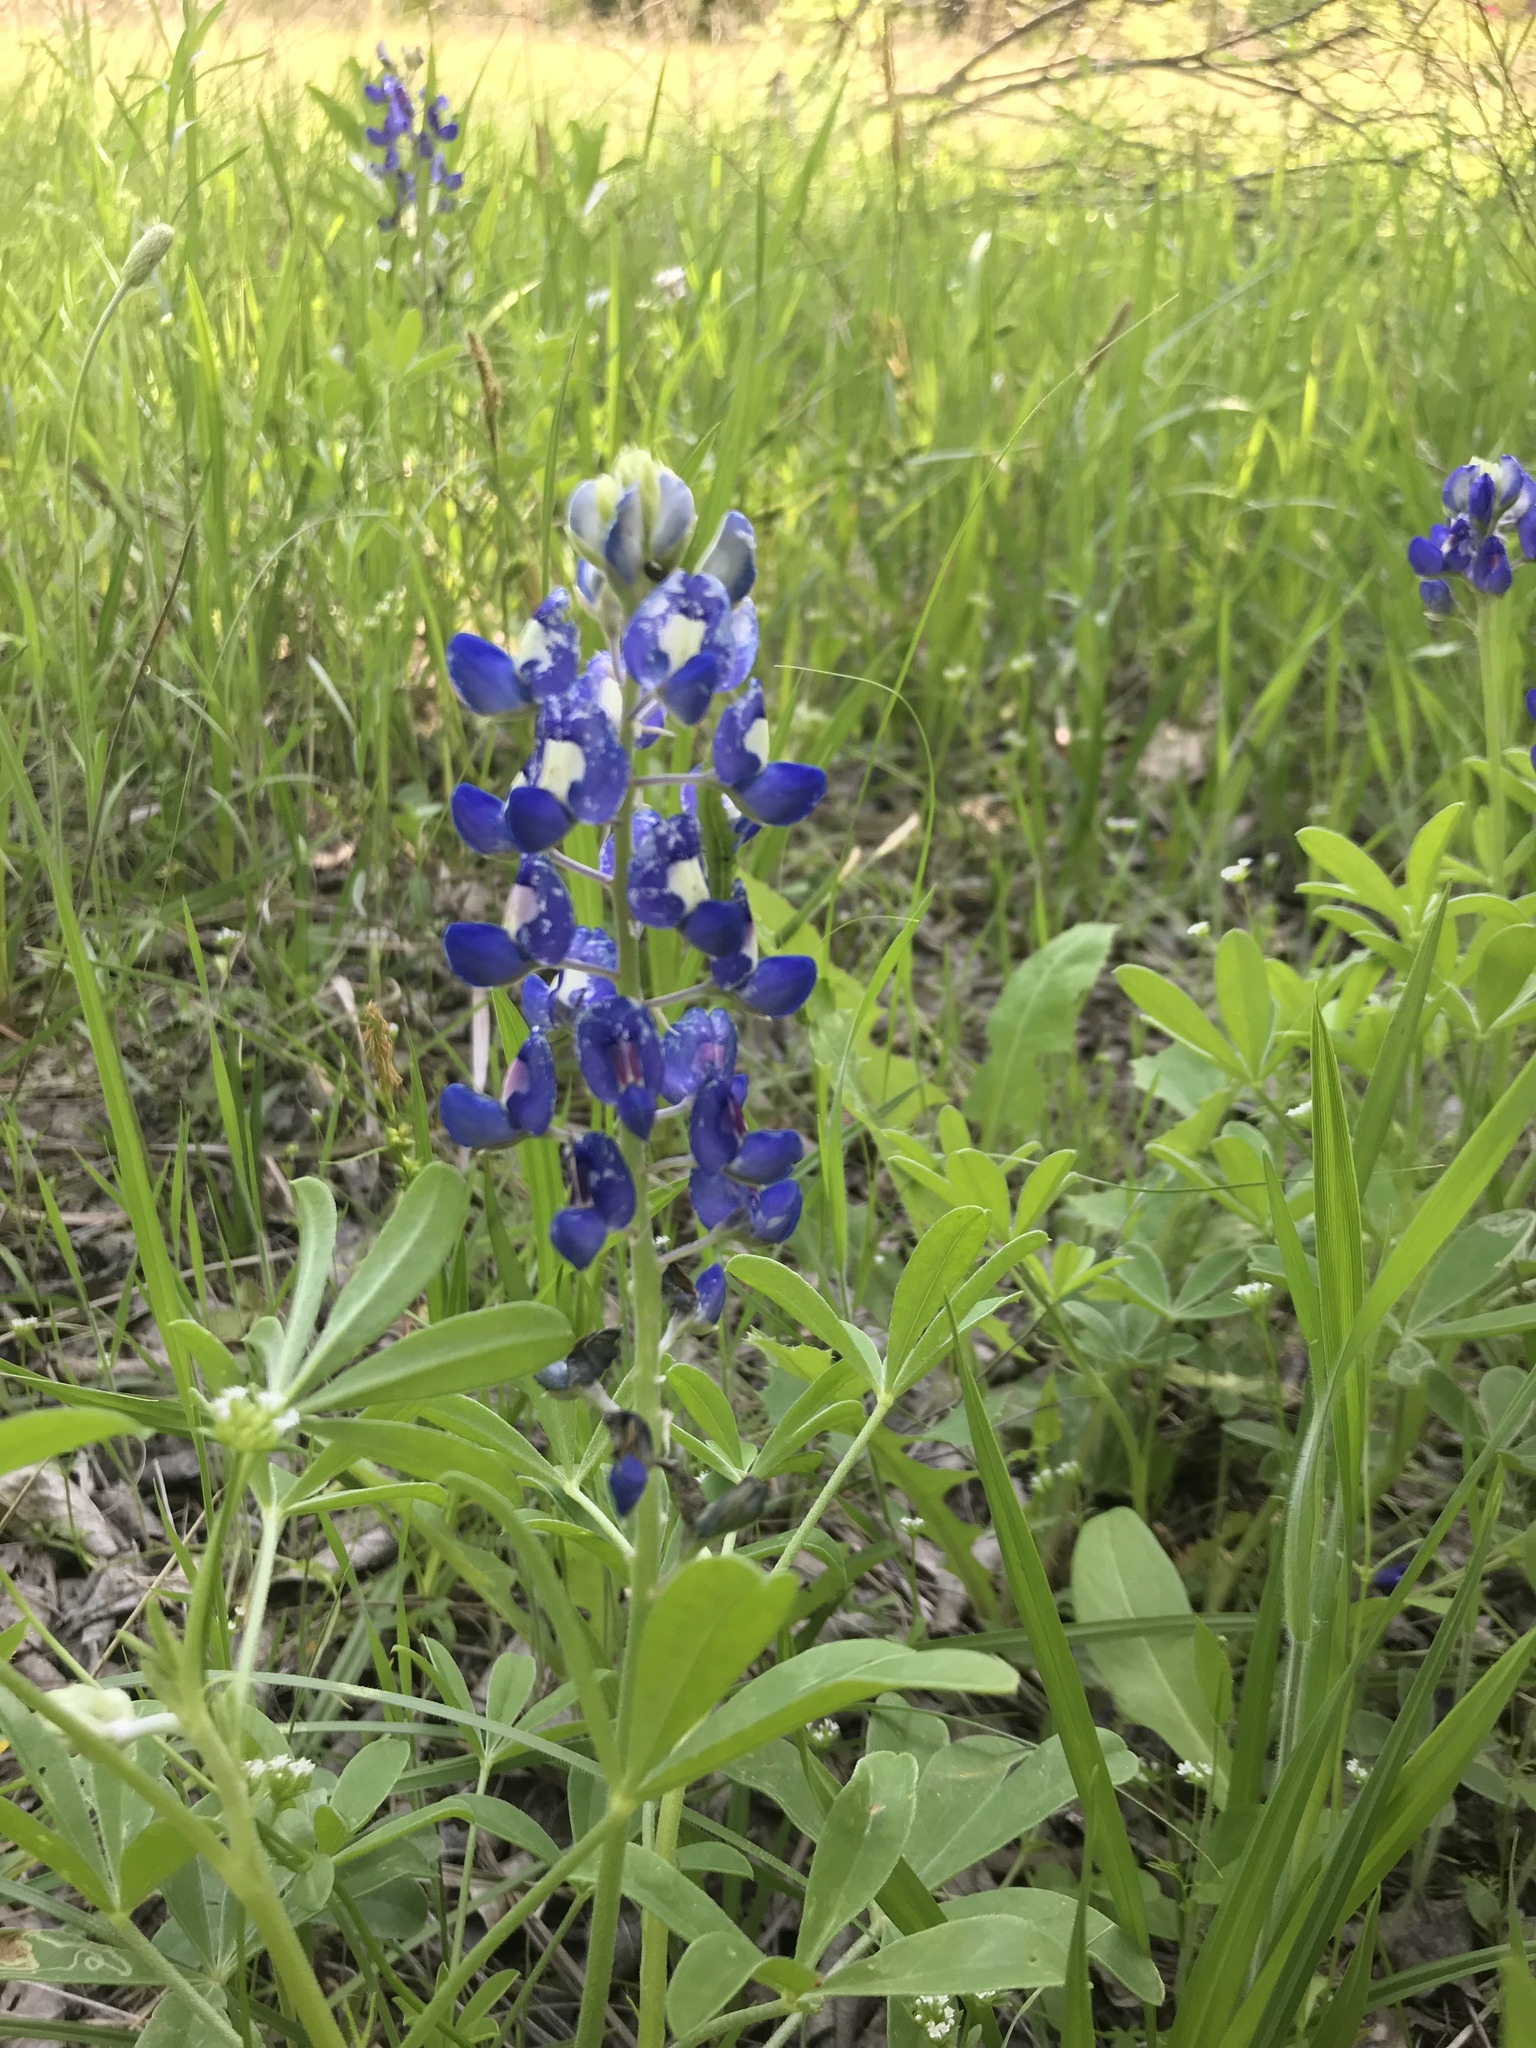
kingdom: Plantae
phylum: Tracheophyta
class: Magnoliopsida
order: Fabales
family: Fabaceae
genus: Lupinus
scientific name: Lupinus texensis
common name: Texas bluebonnet
